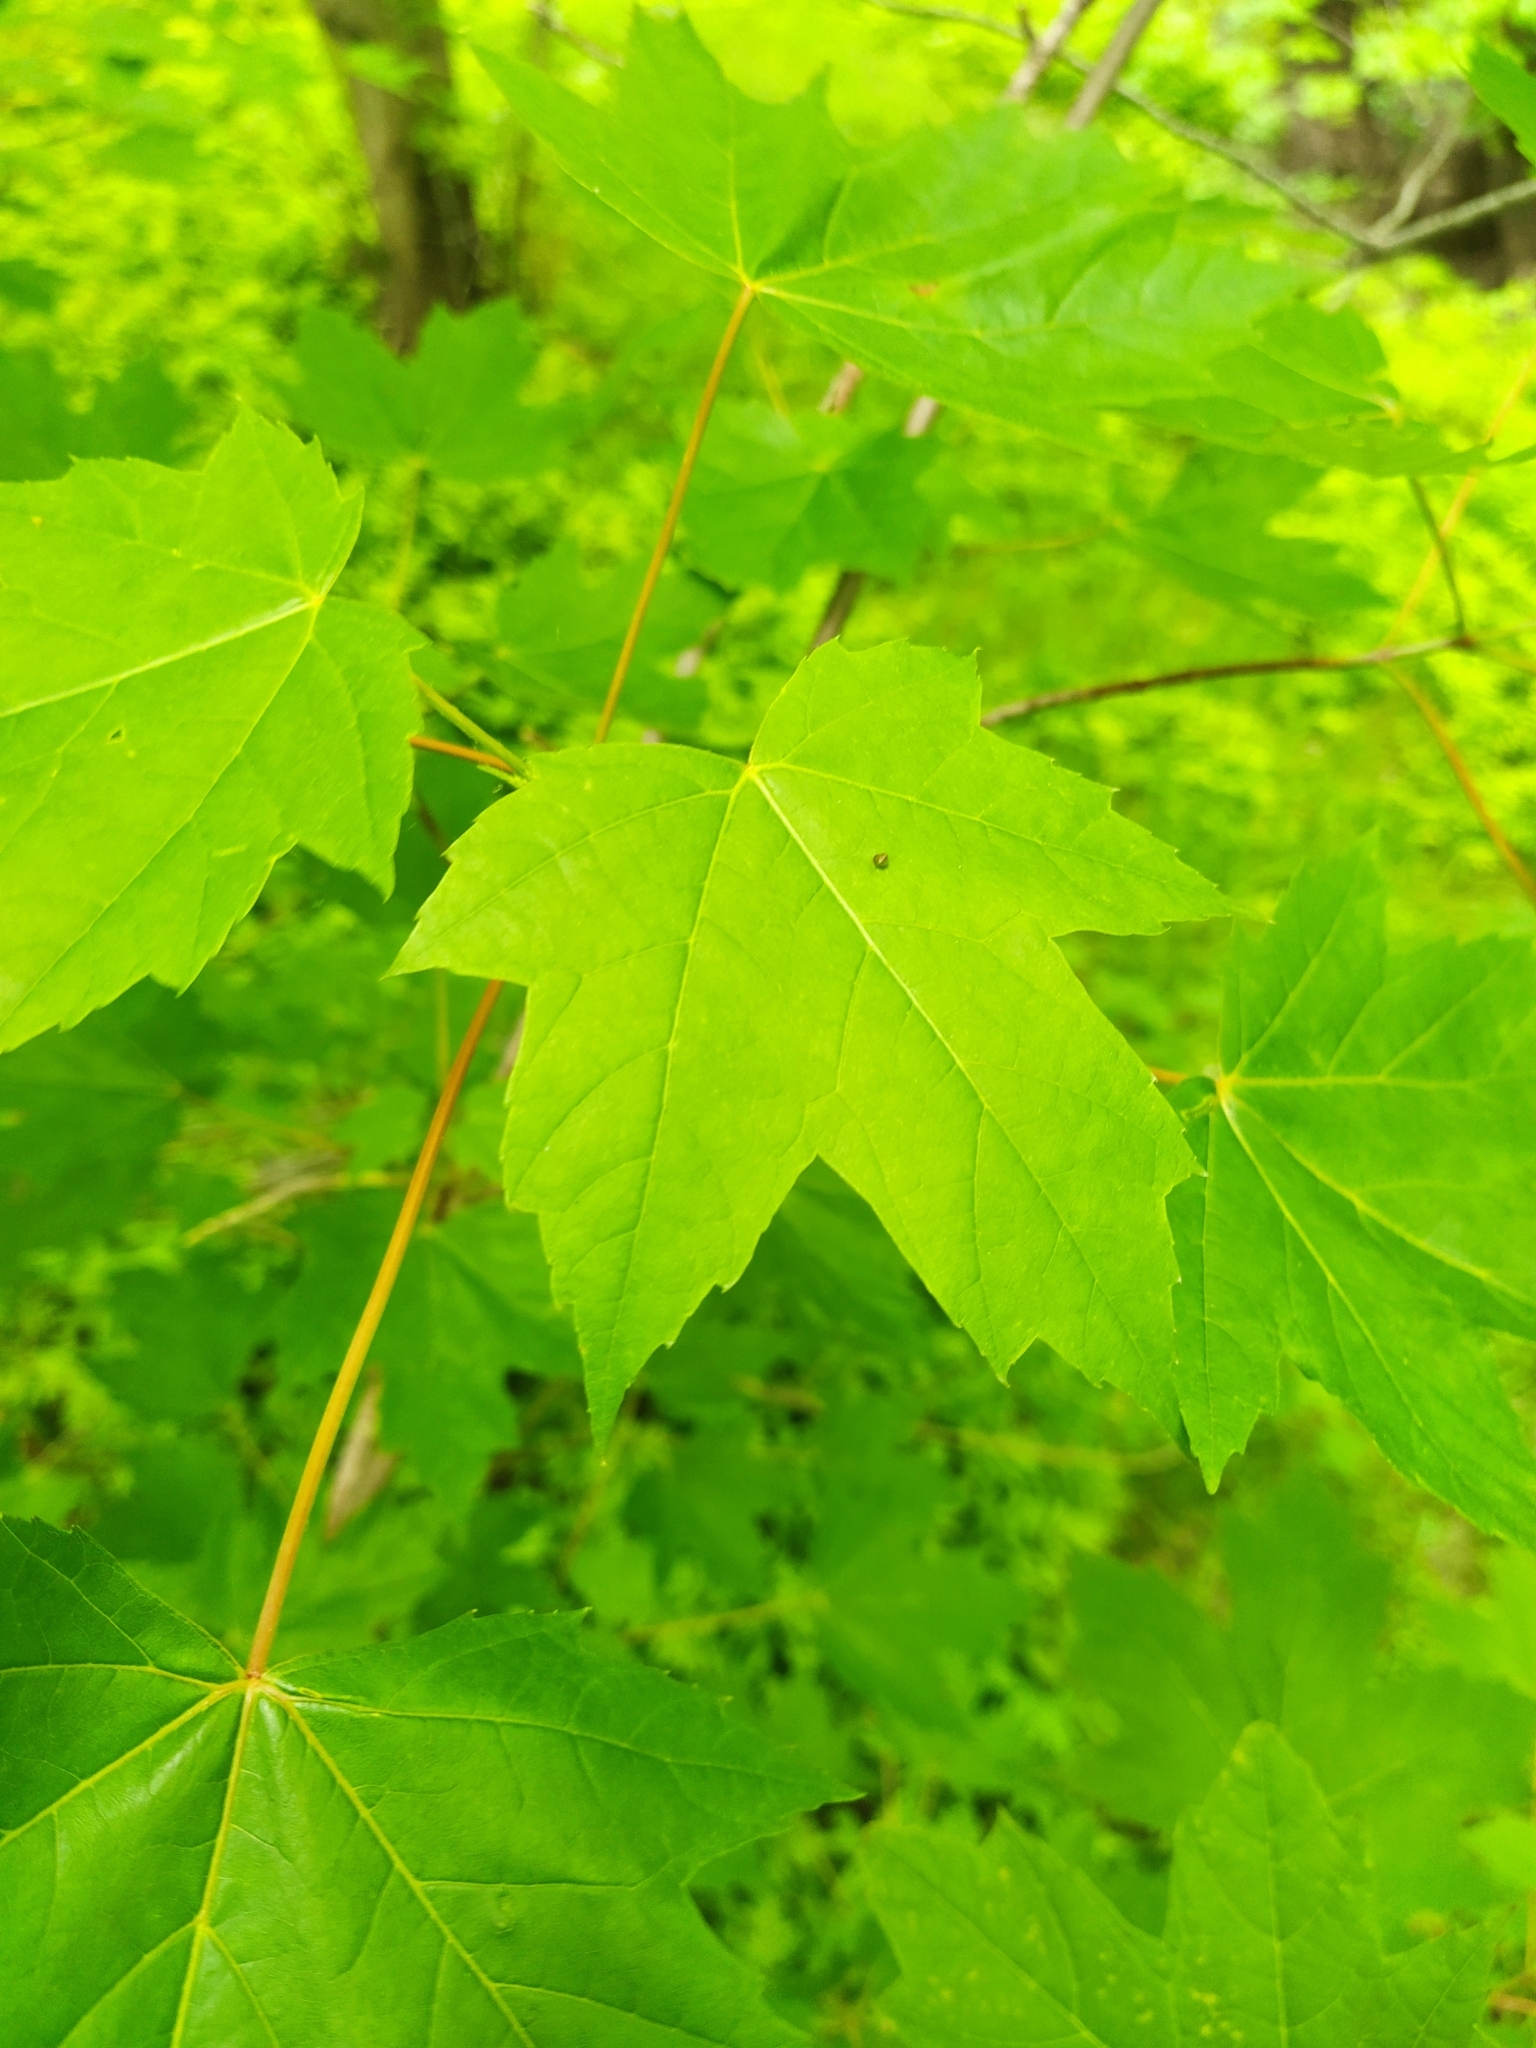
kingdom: Plantae
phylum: Tracheophyta
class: Magnoliopsida
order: Sapindales
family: Sapindaceae
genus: Acer
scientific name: Acer rubrum
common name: Red maple
